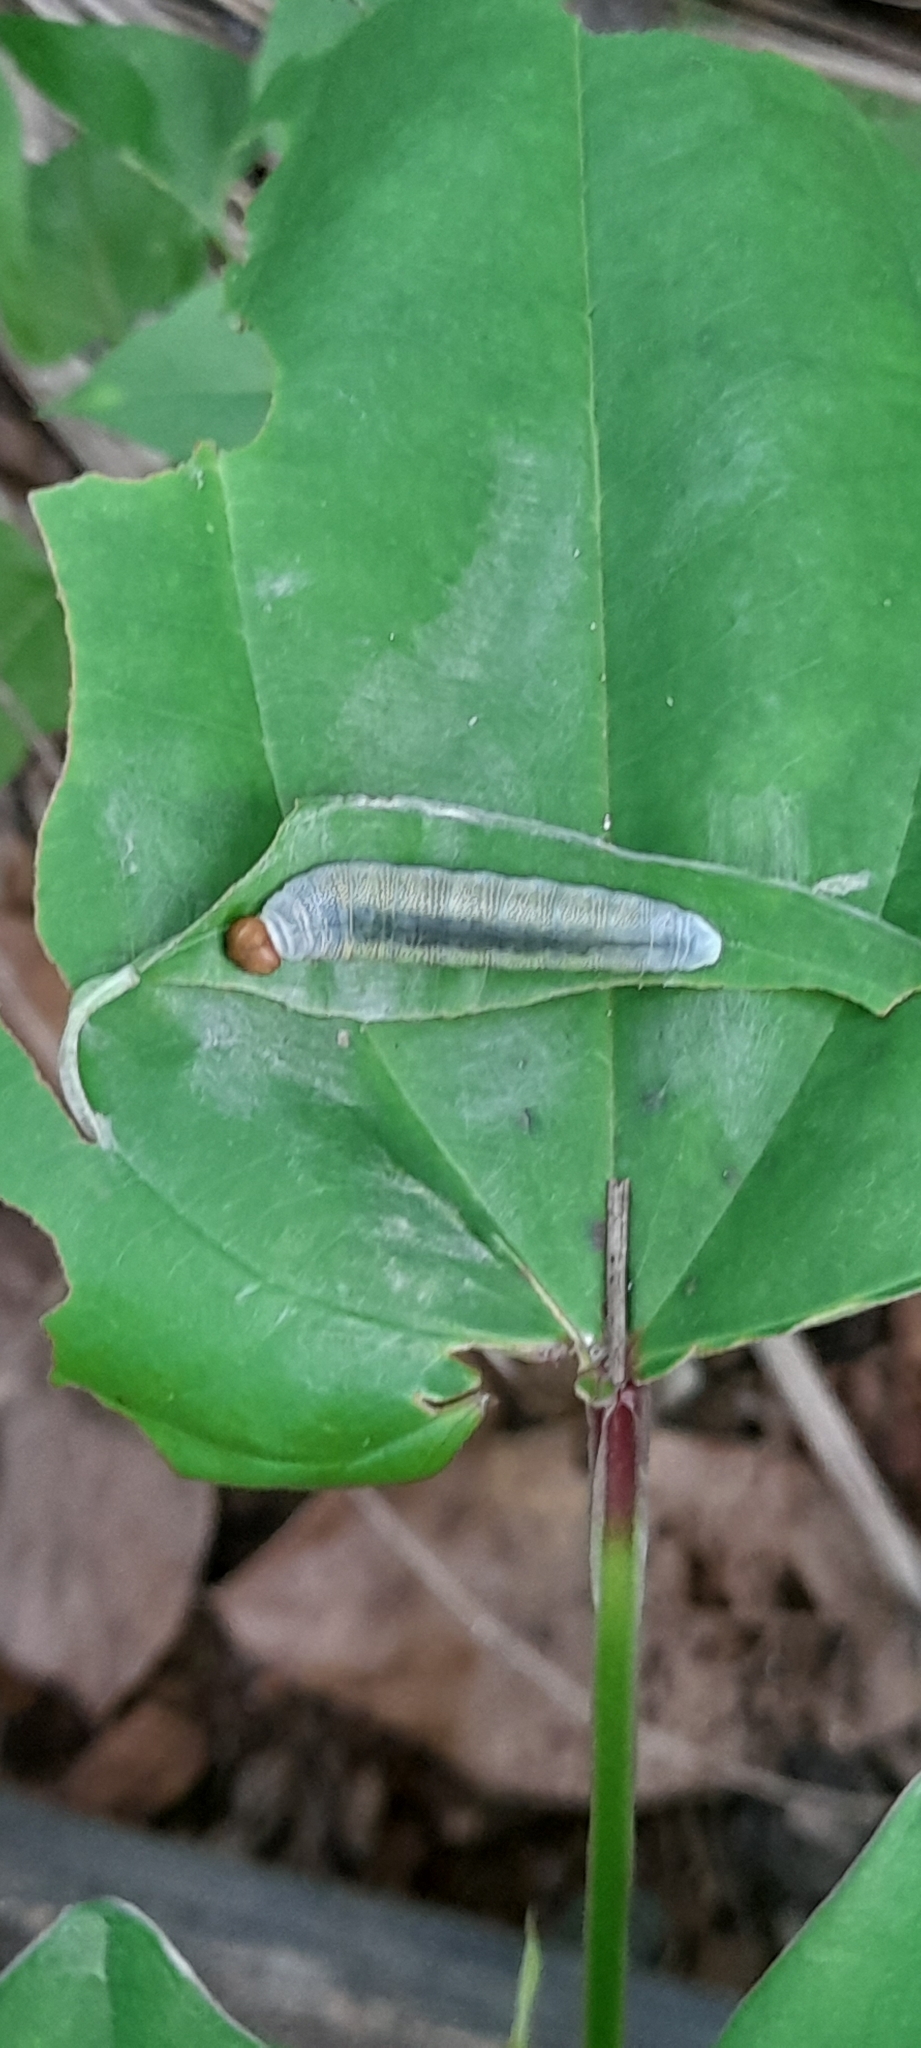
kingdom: Animalia
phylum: Arthropoda
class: Insecta
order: Lepidoptera
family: Hesperiidae
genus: Tagiades
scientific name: Tagiades litigiosa
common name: Water snow flat
